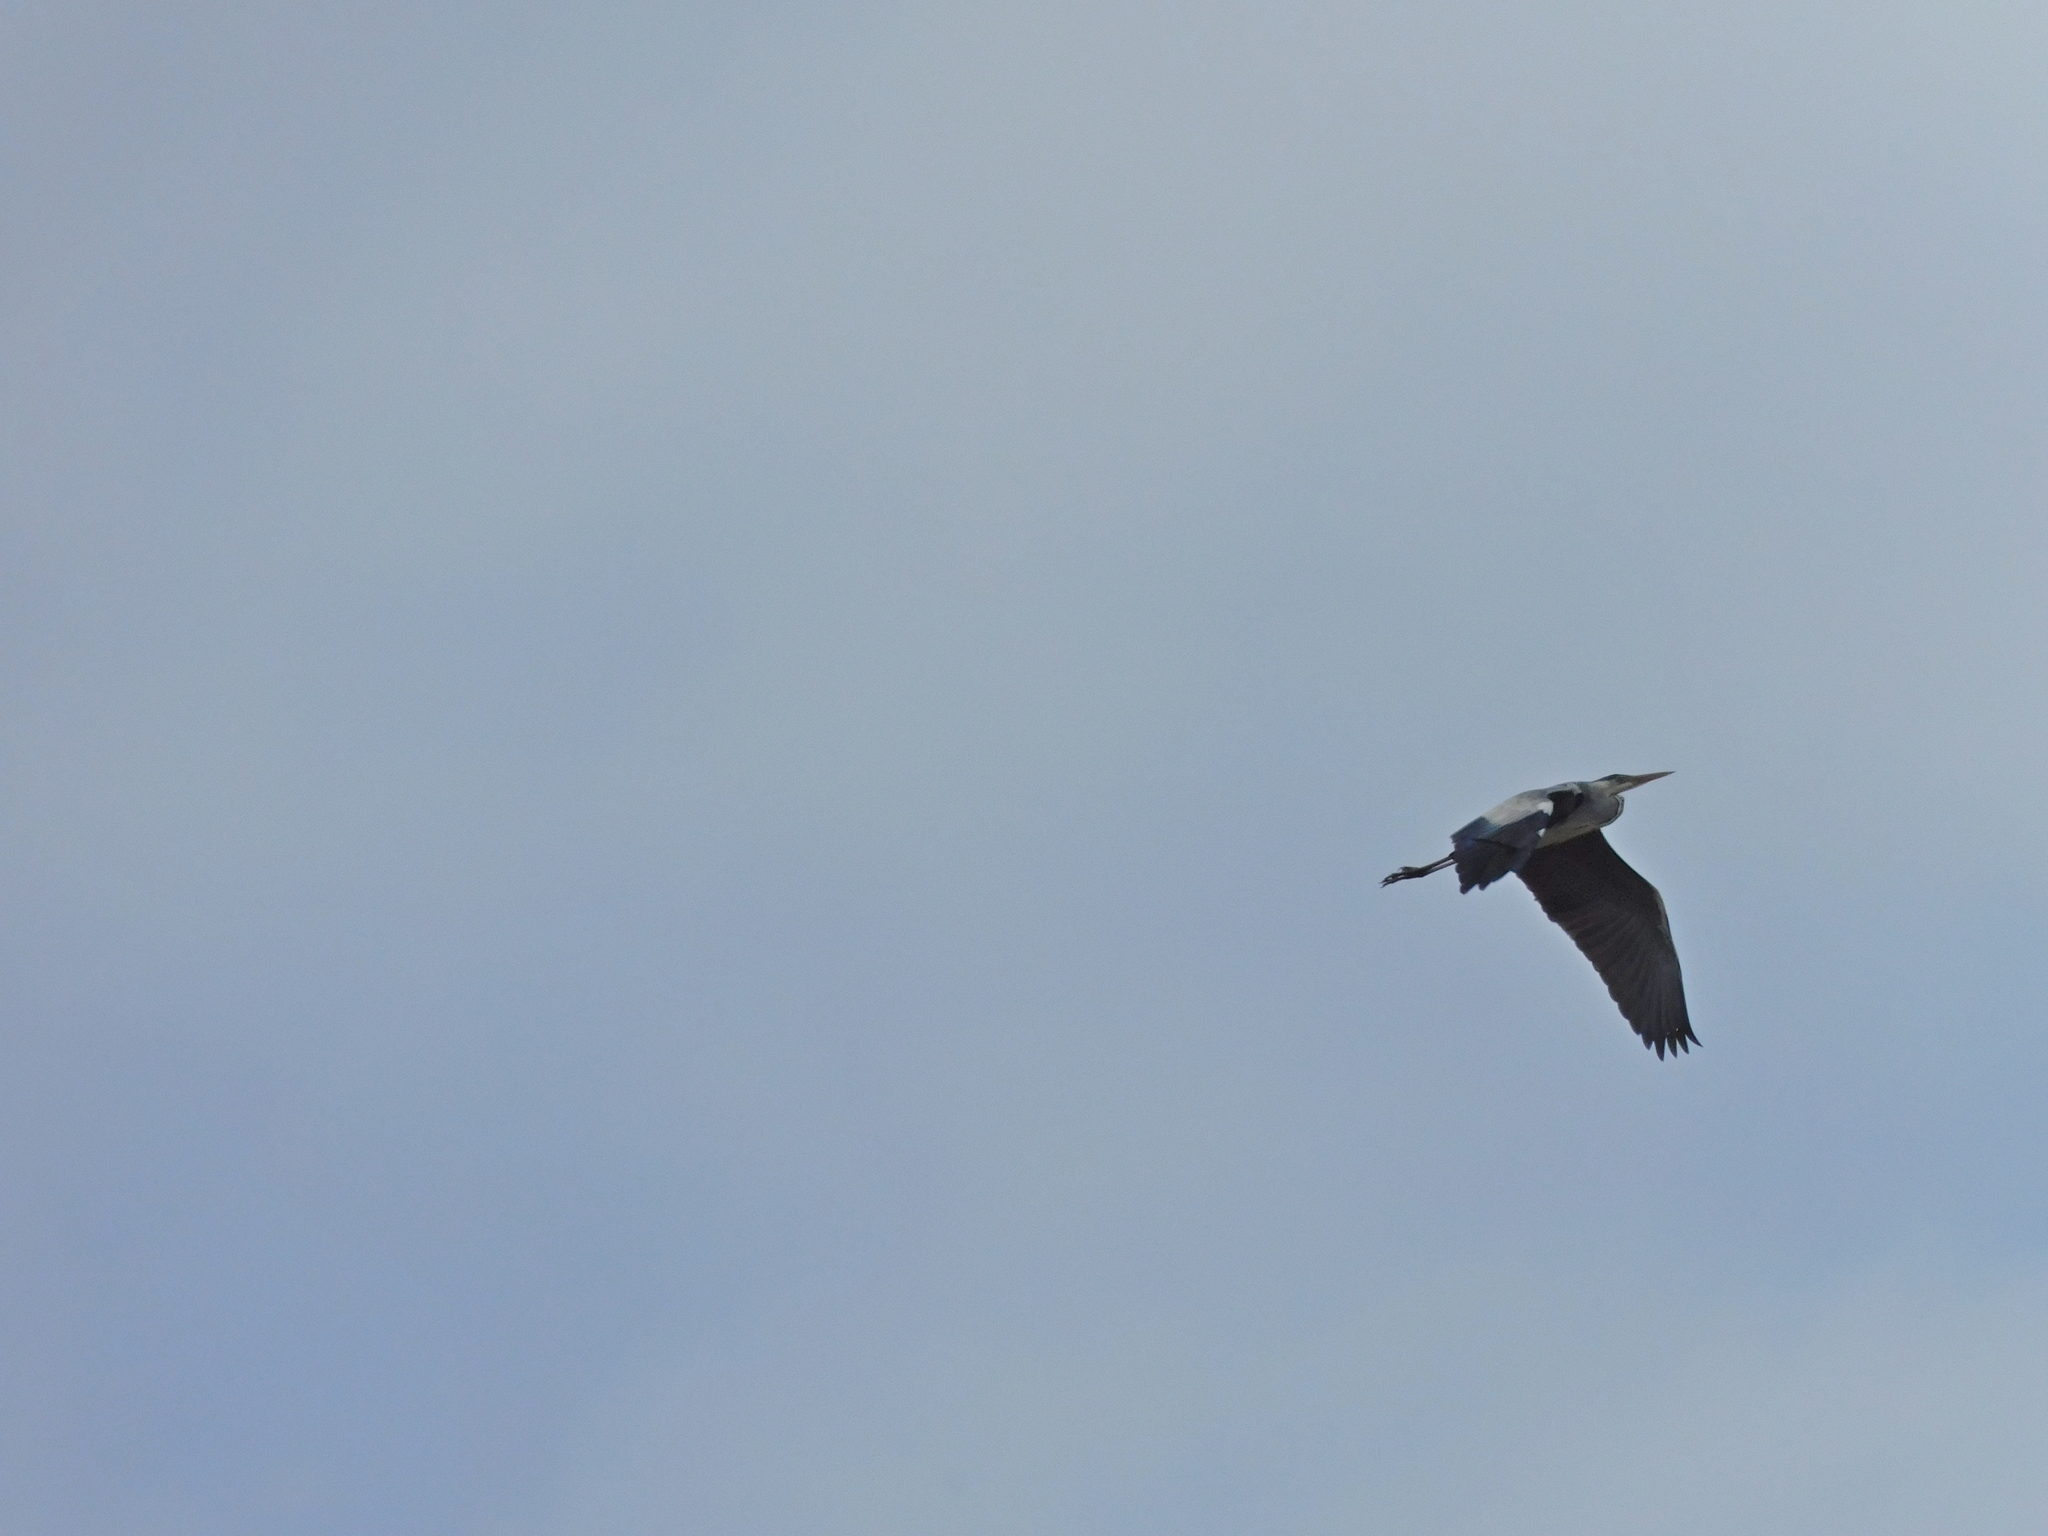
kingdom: Animalia
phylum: Chordata
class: Aves
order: Pelecaniformes
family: Ardeidae
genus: Ardea
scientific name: Ardea cinerea
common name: Grey heron
